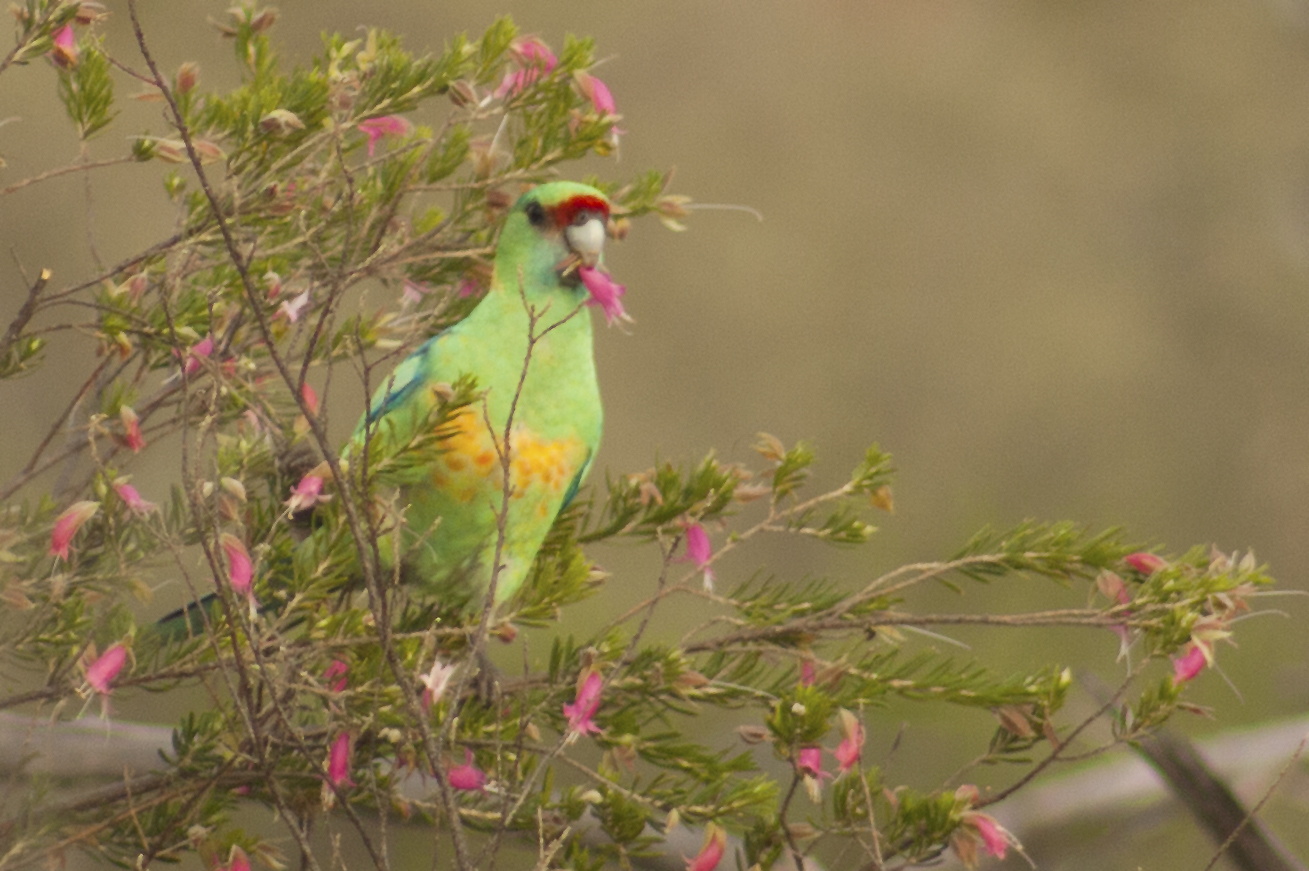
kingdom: Animalia
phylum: Chordata
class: Aves
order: Psittaciformes
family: Psittacidae
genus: Barnardius
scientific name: Barnardius zonarius
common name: Australian ringneck
